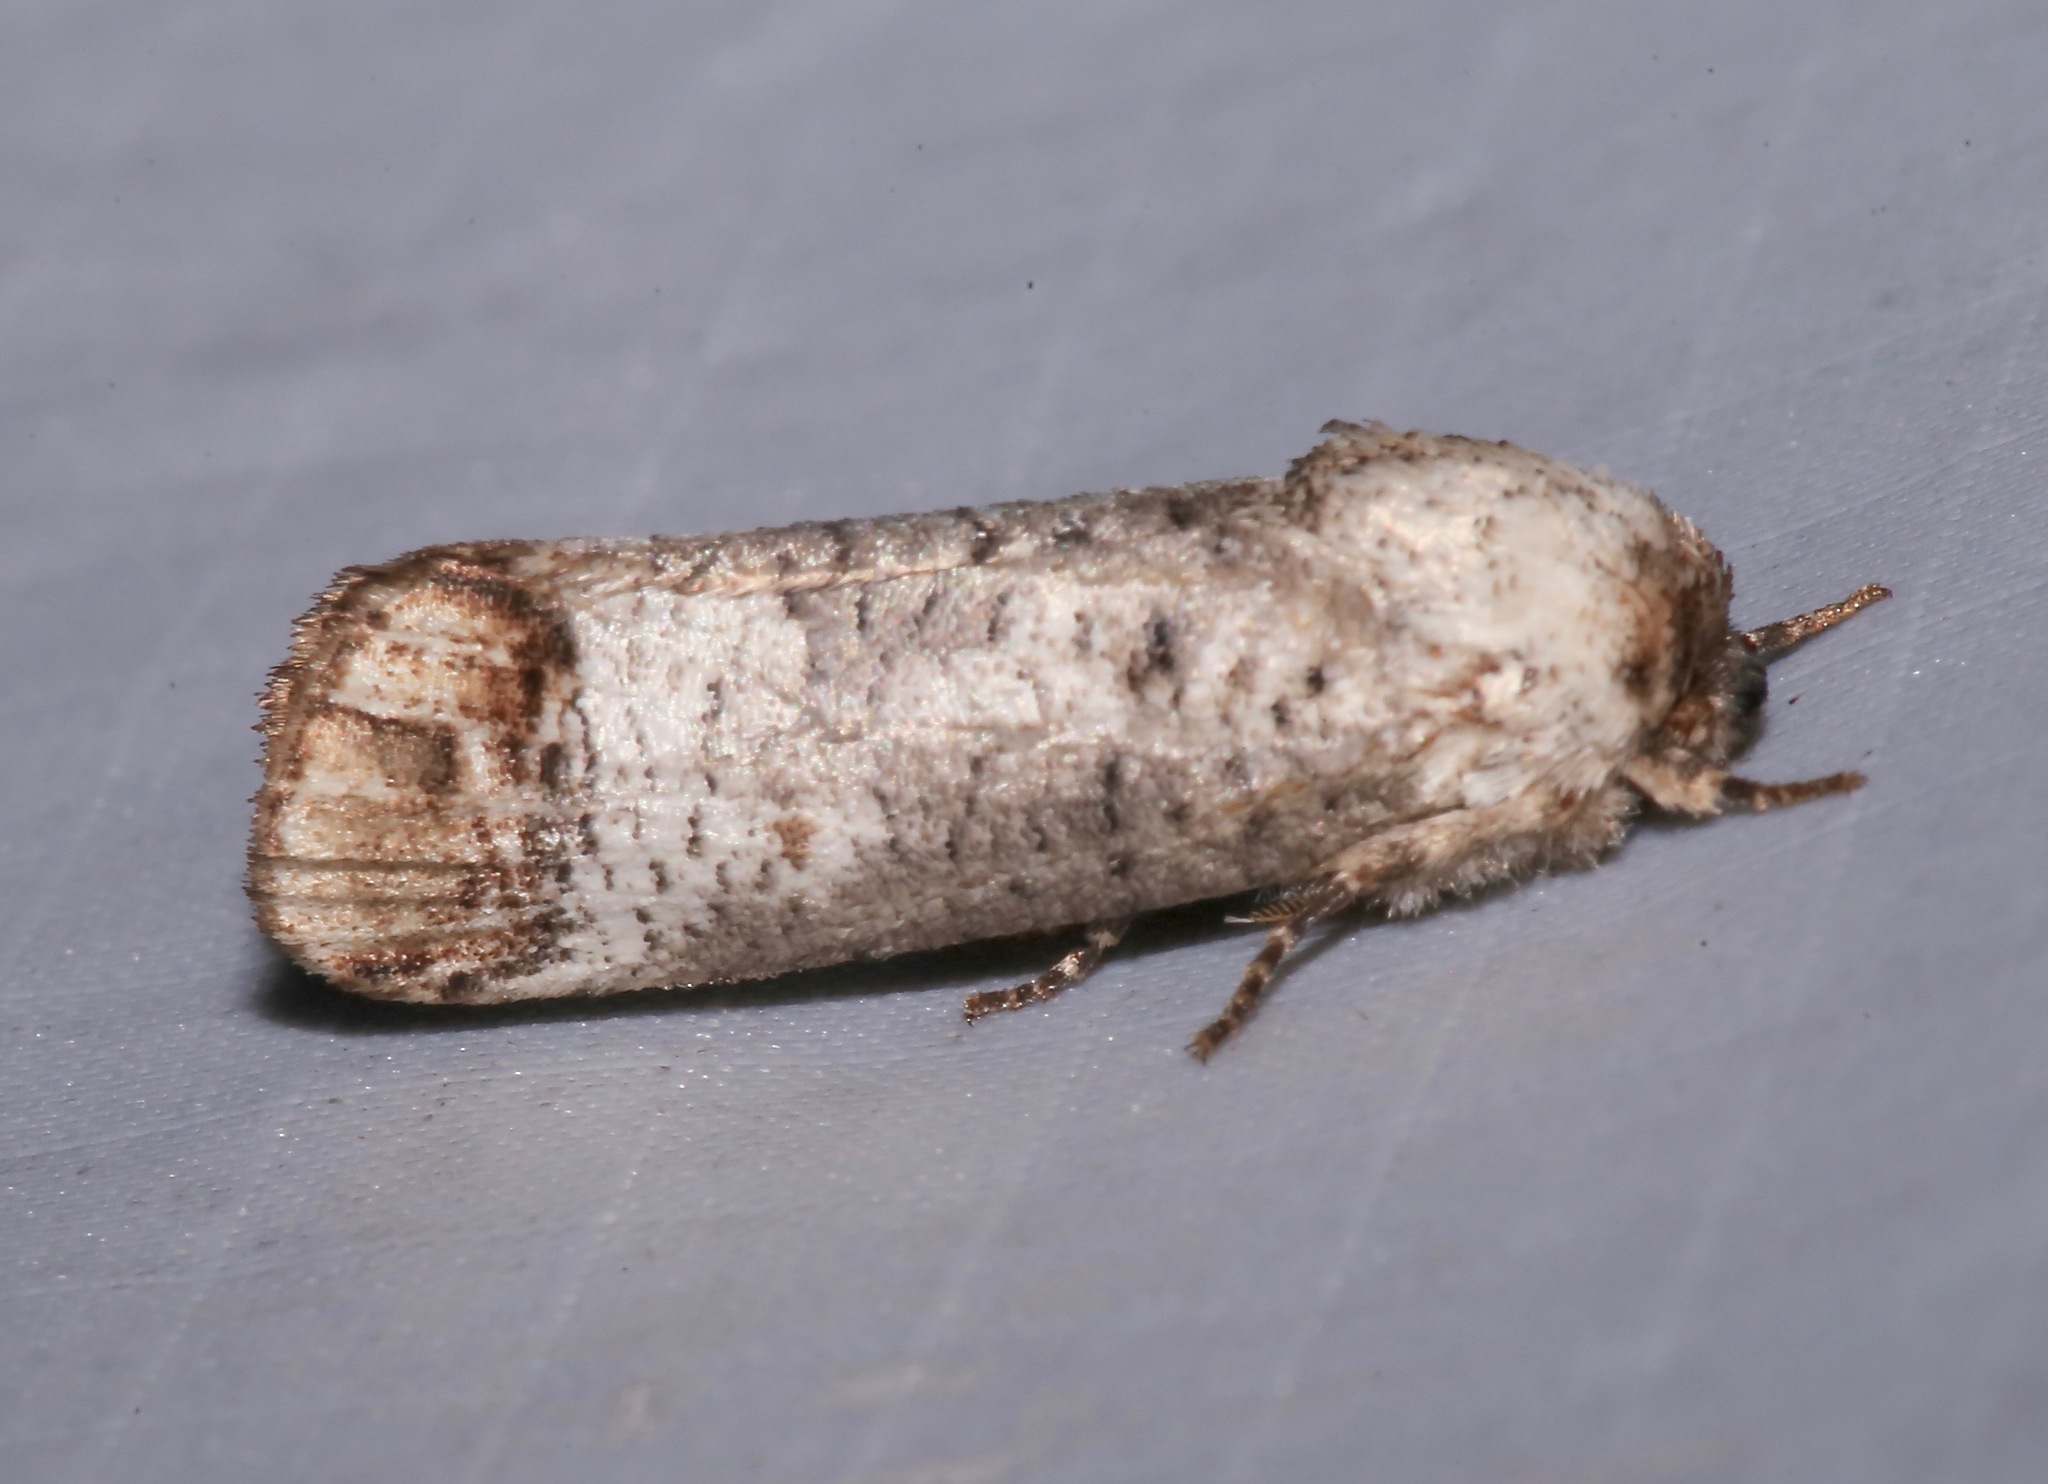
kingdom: Animalia
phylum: Arthropoda
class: Insecta
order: Lepidoptera
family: Cossidae
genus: Cossula
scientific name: Cossula magnifica
